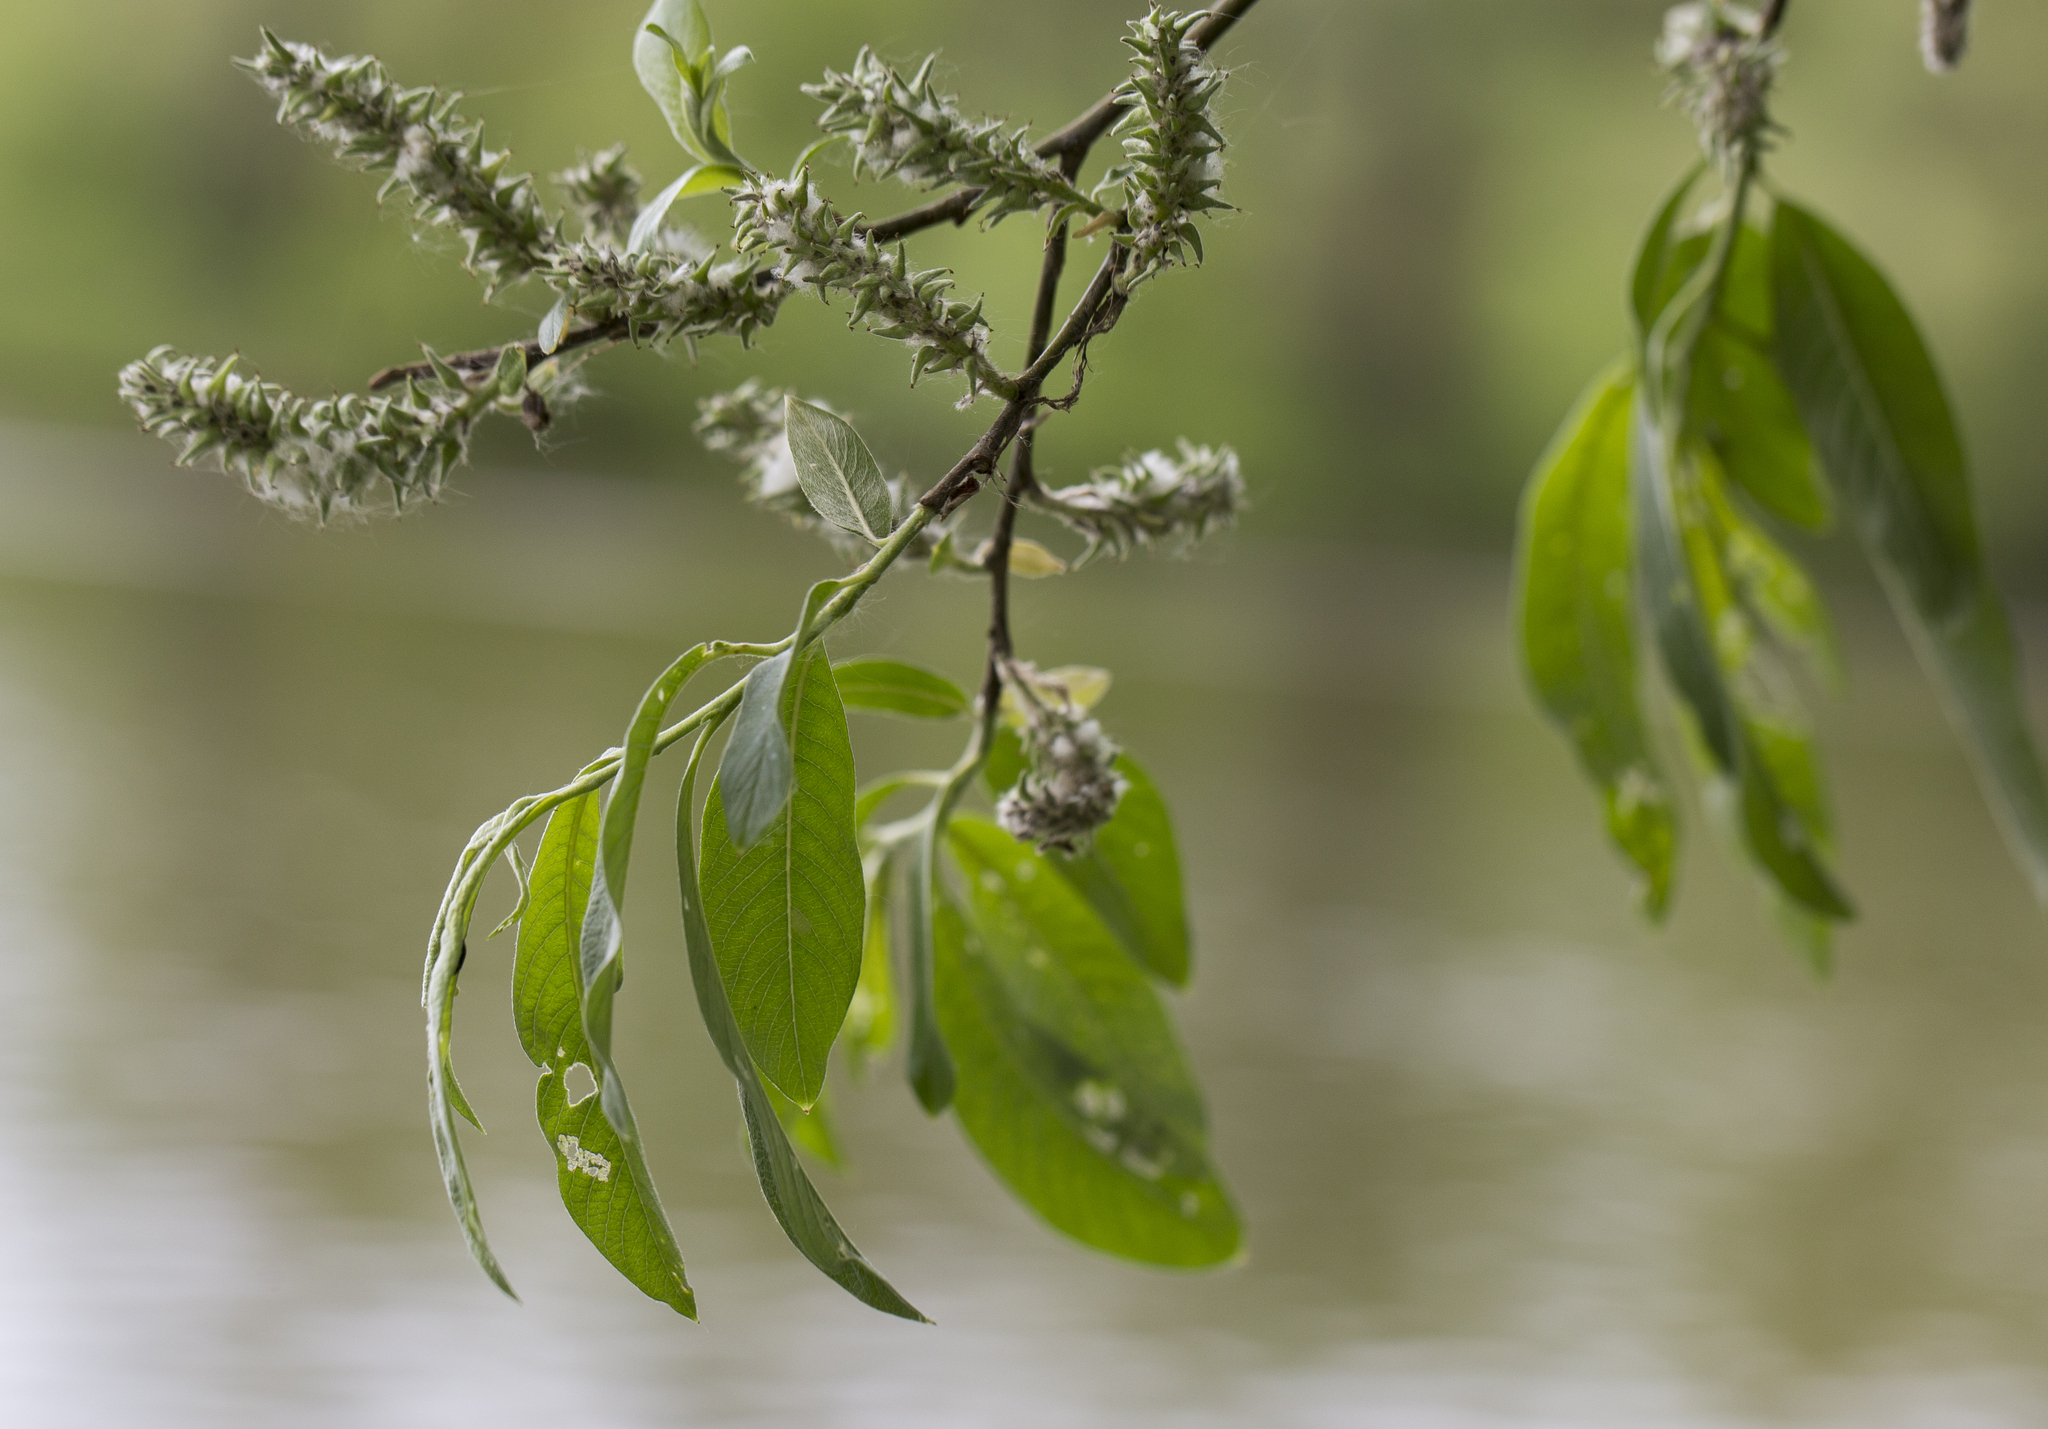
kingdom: Plantae
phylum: Tracheophyta
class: Magnoliopsida
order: Malpighiales
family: Salicaceae
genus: Salix
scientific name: Salix caprea
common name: Goat willow
